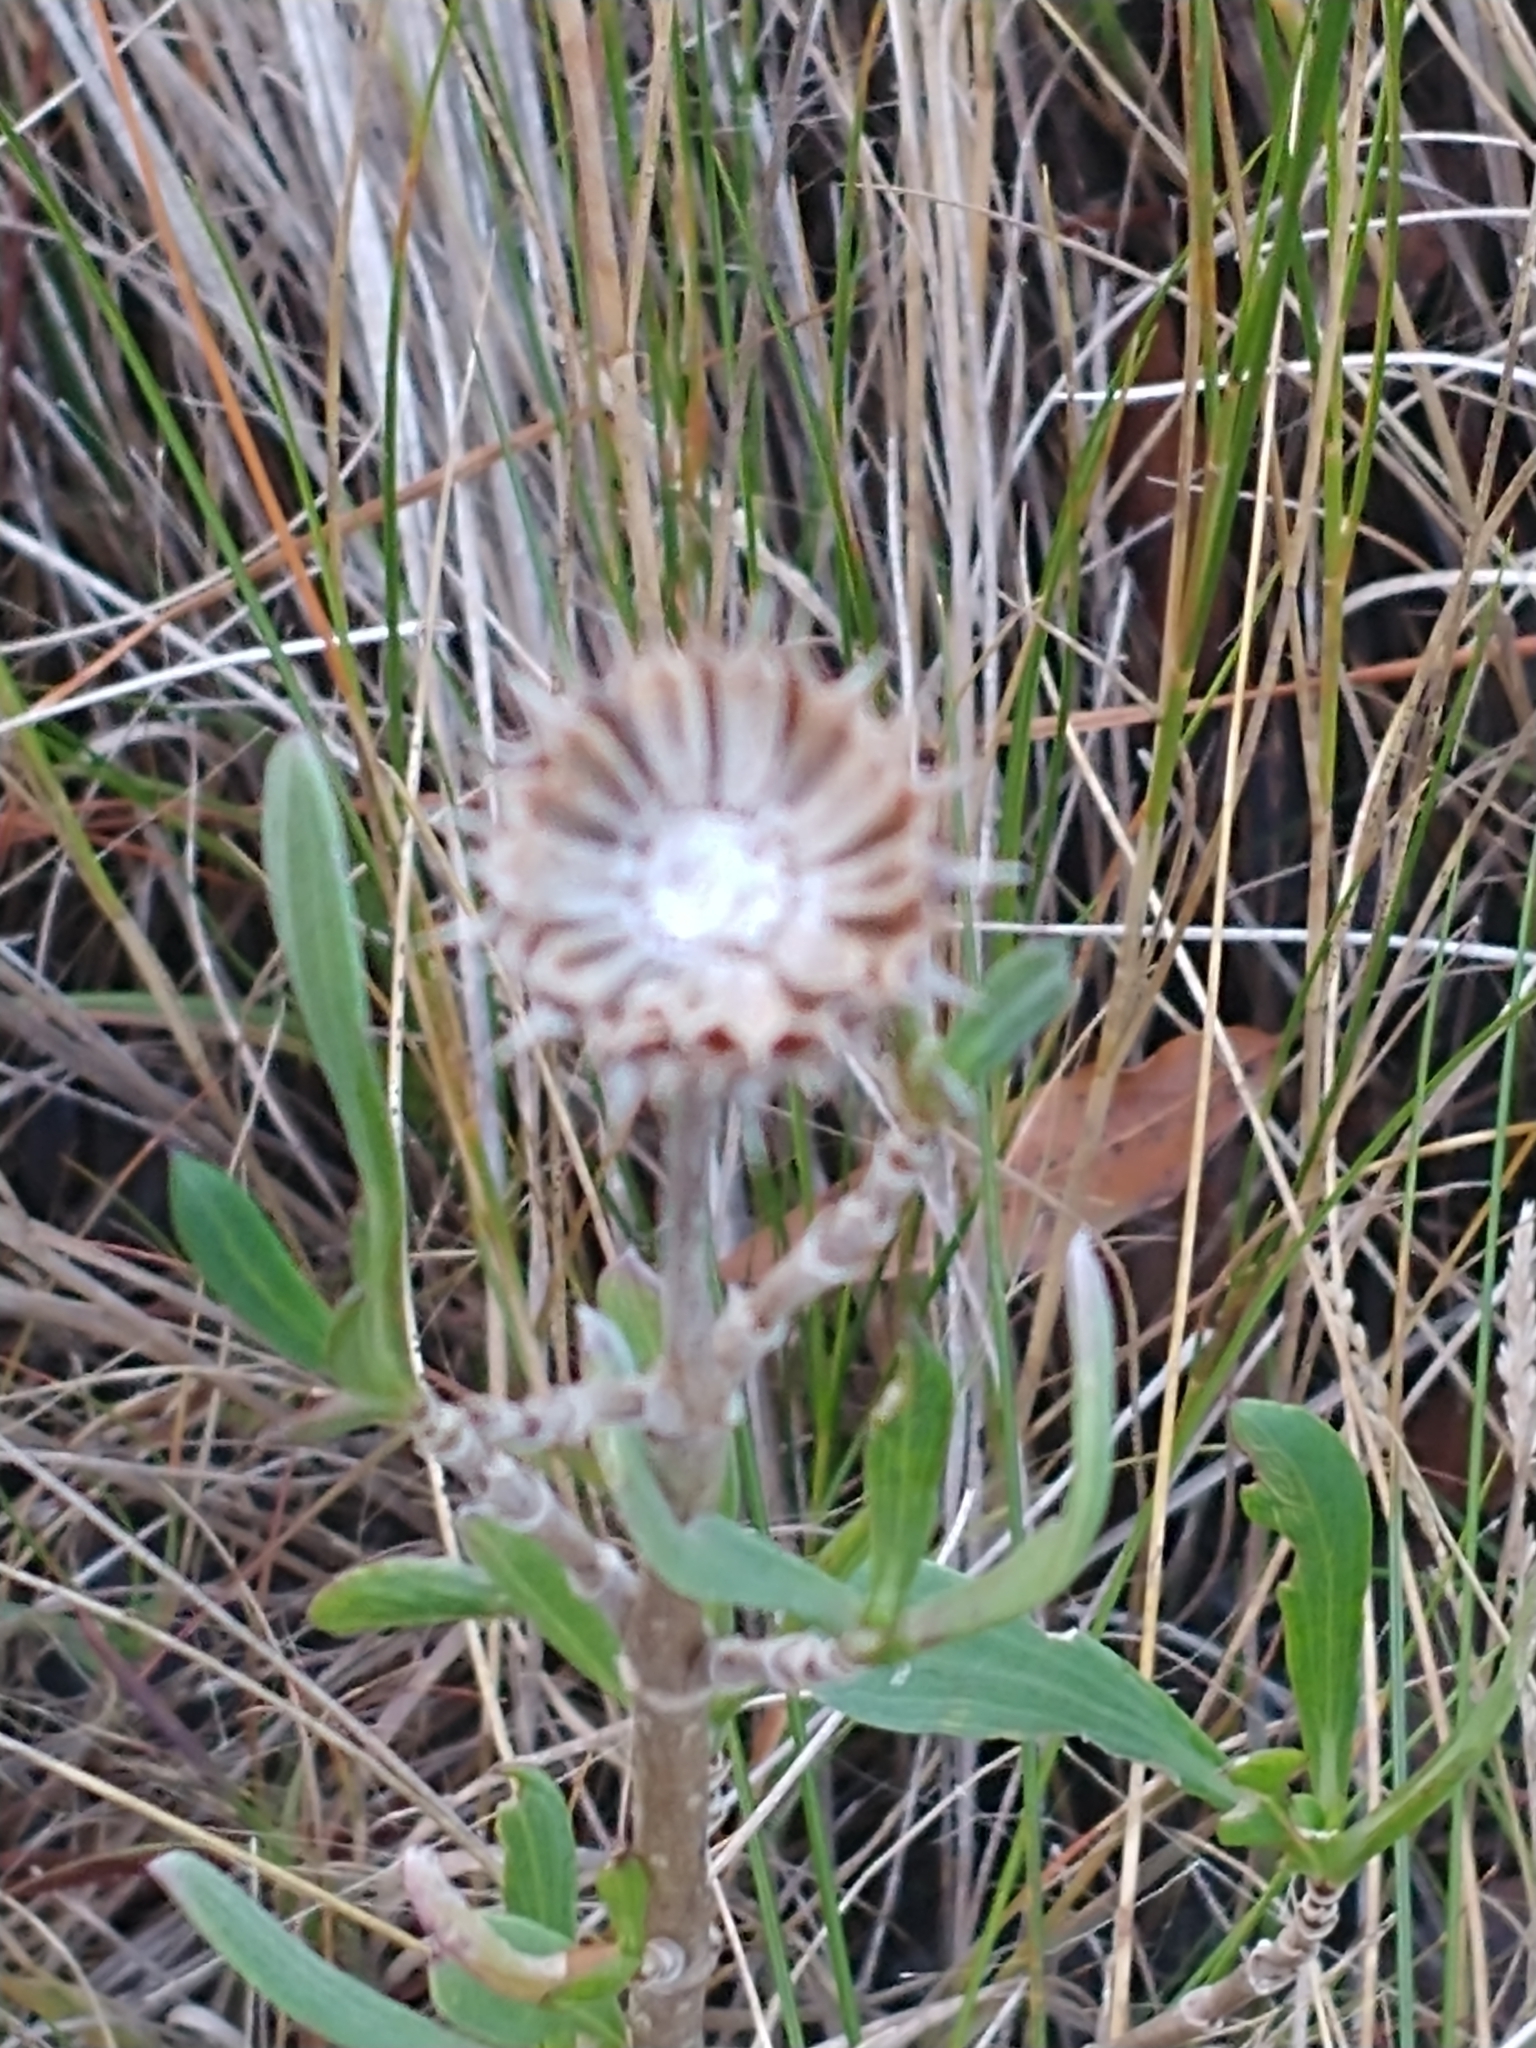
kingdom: Plantae
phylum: Tracheophyta
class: Magnoliopsida
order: Asterales
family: Asteraceae
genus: Borrichia
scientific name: Borrichia frutescens
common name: Sea oxeye
